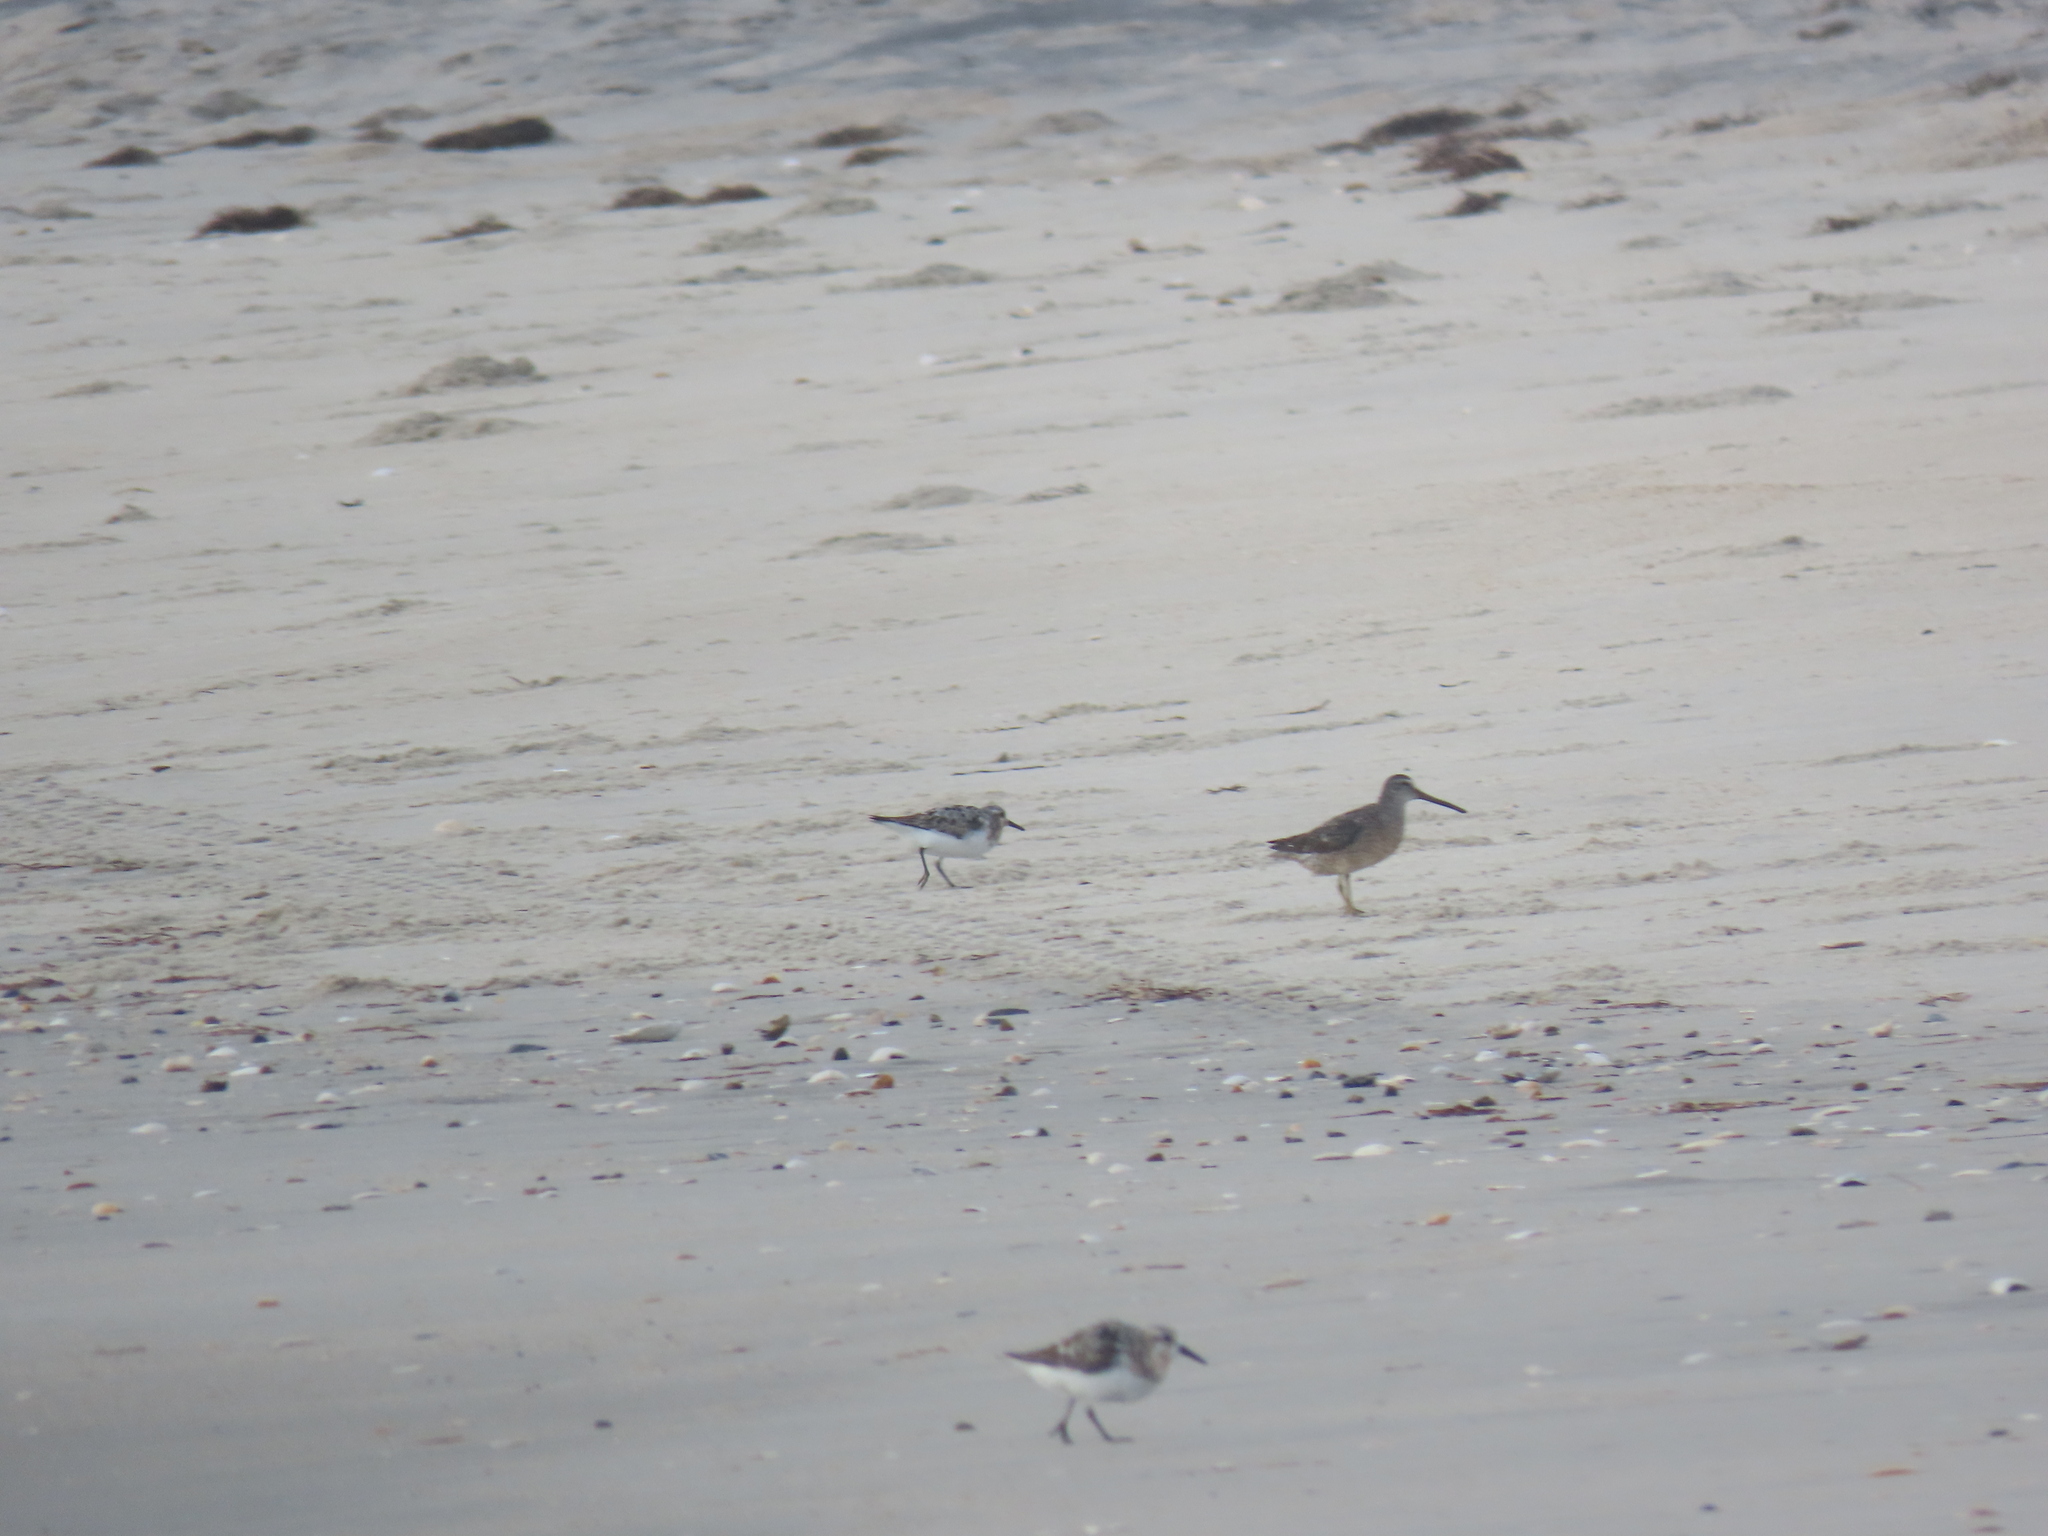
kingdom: Animalia
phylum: Chordata
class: Aves
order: Charadriiformes
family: Scolopacidae
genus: Limnodromus
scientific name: Limnodromus griseus
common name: Short-billed dowitcher
